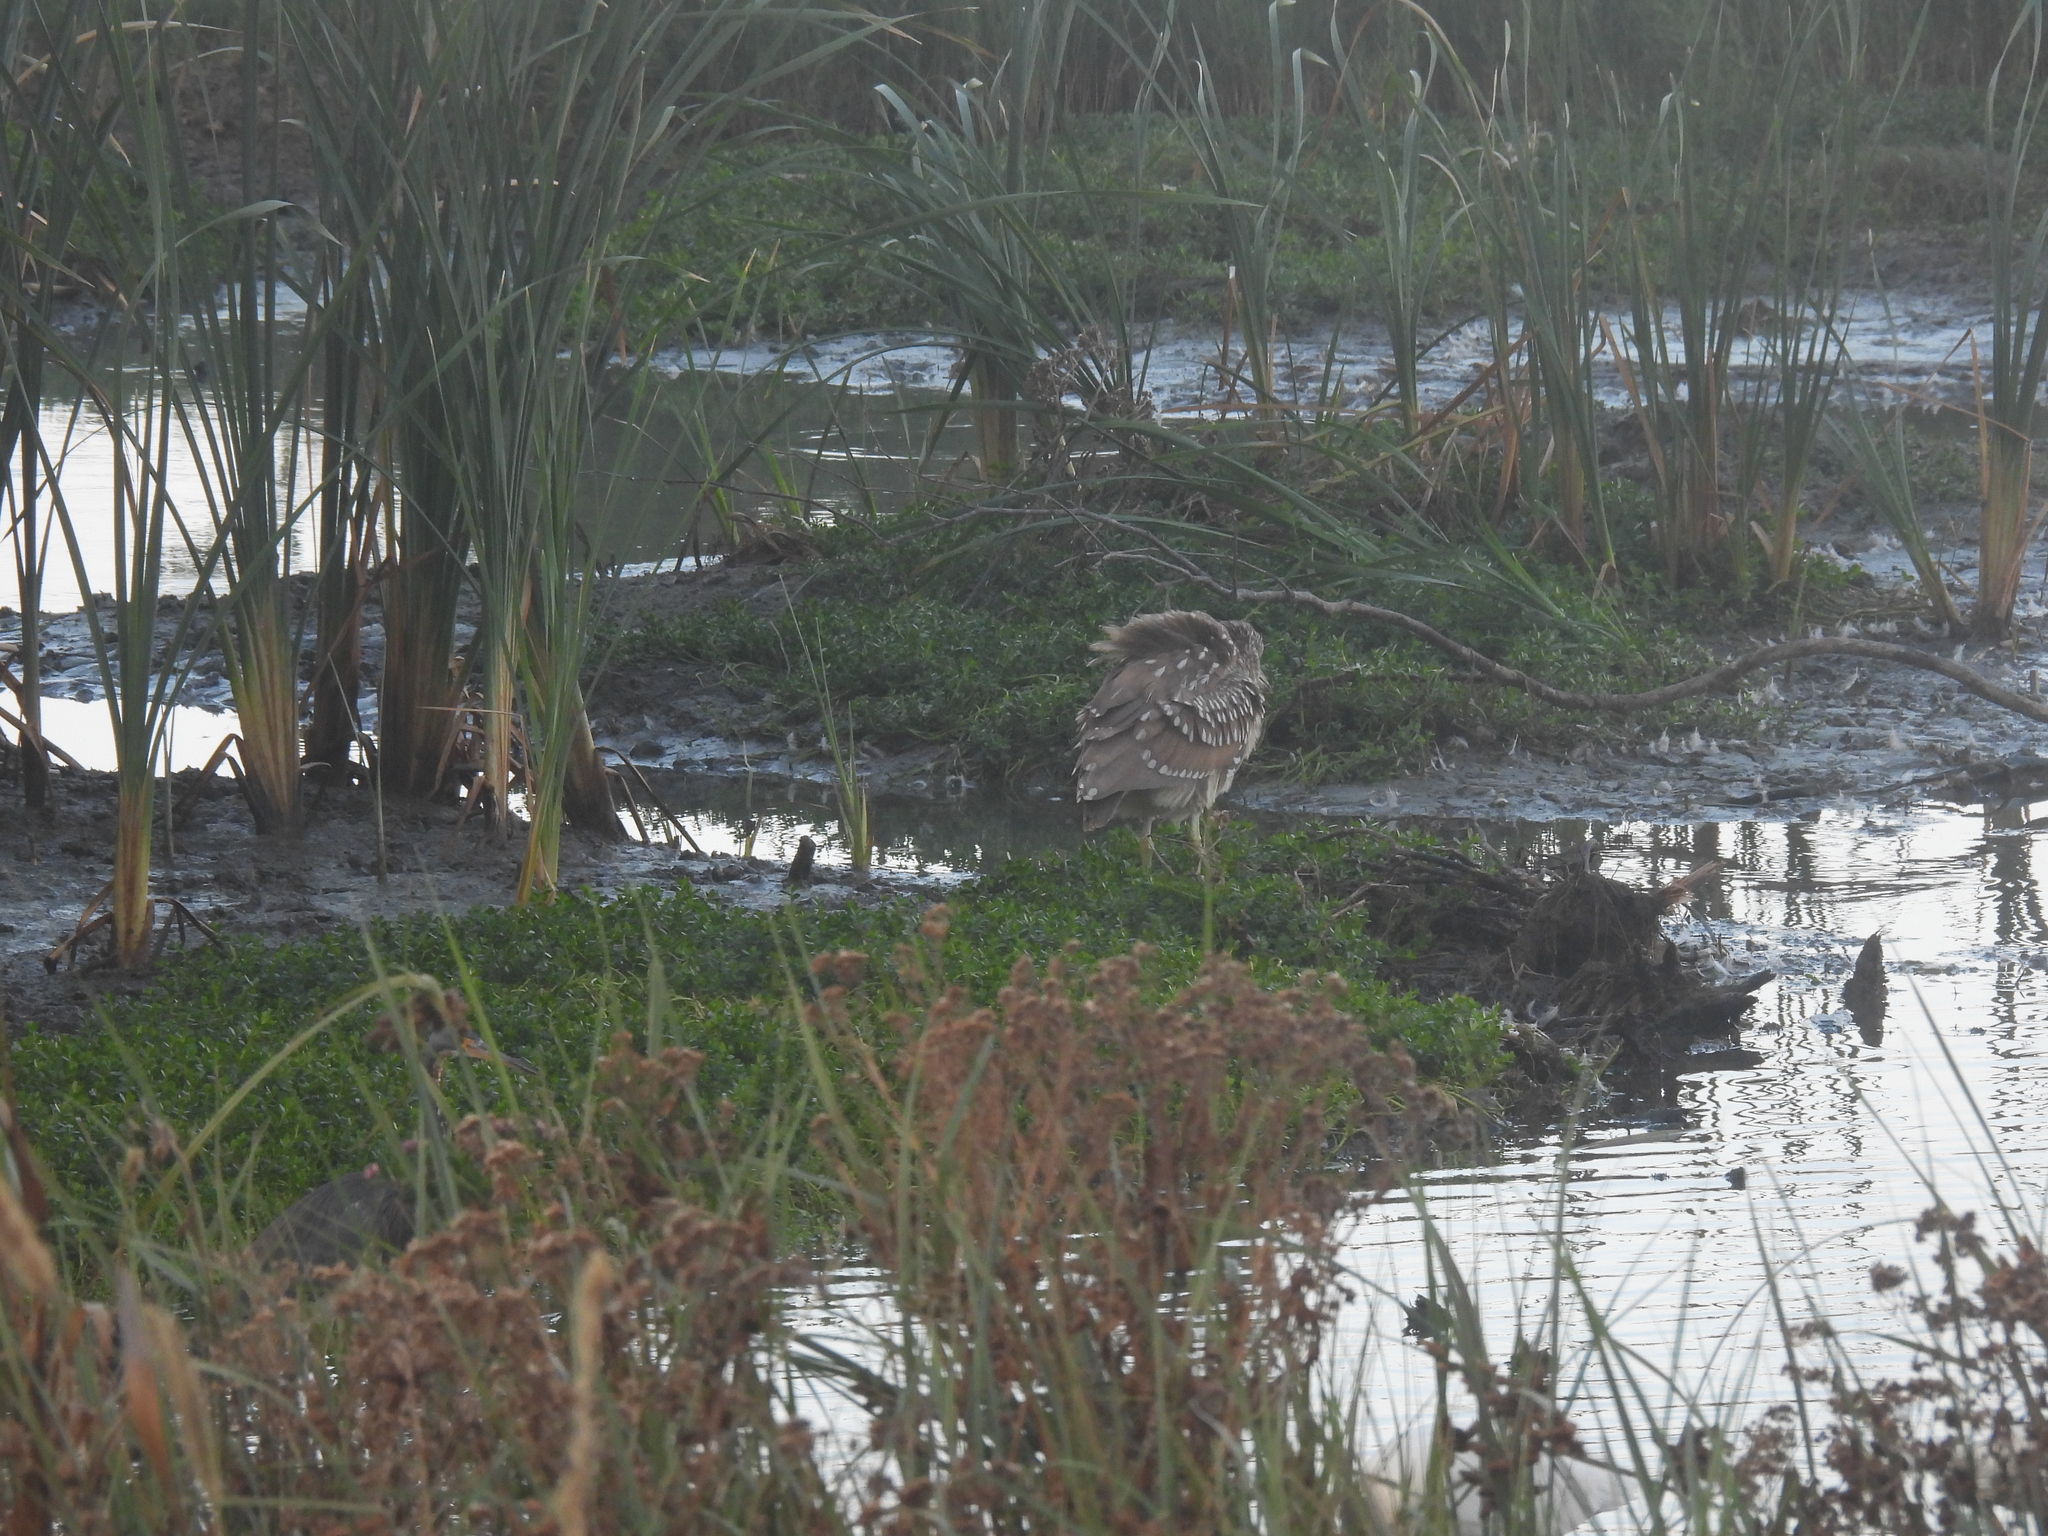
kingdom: Animalia
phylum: Chordata
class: Aves
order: Pelecaniformes
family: Ardeidae
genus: Nycticorax
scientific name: Nycticorax nycticorax
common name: Black-crowned night heron
